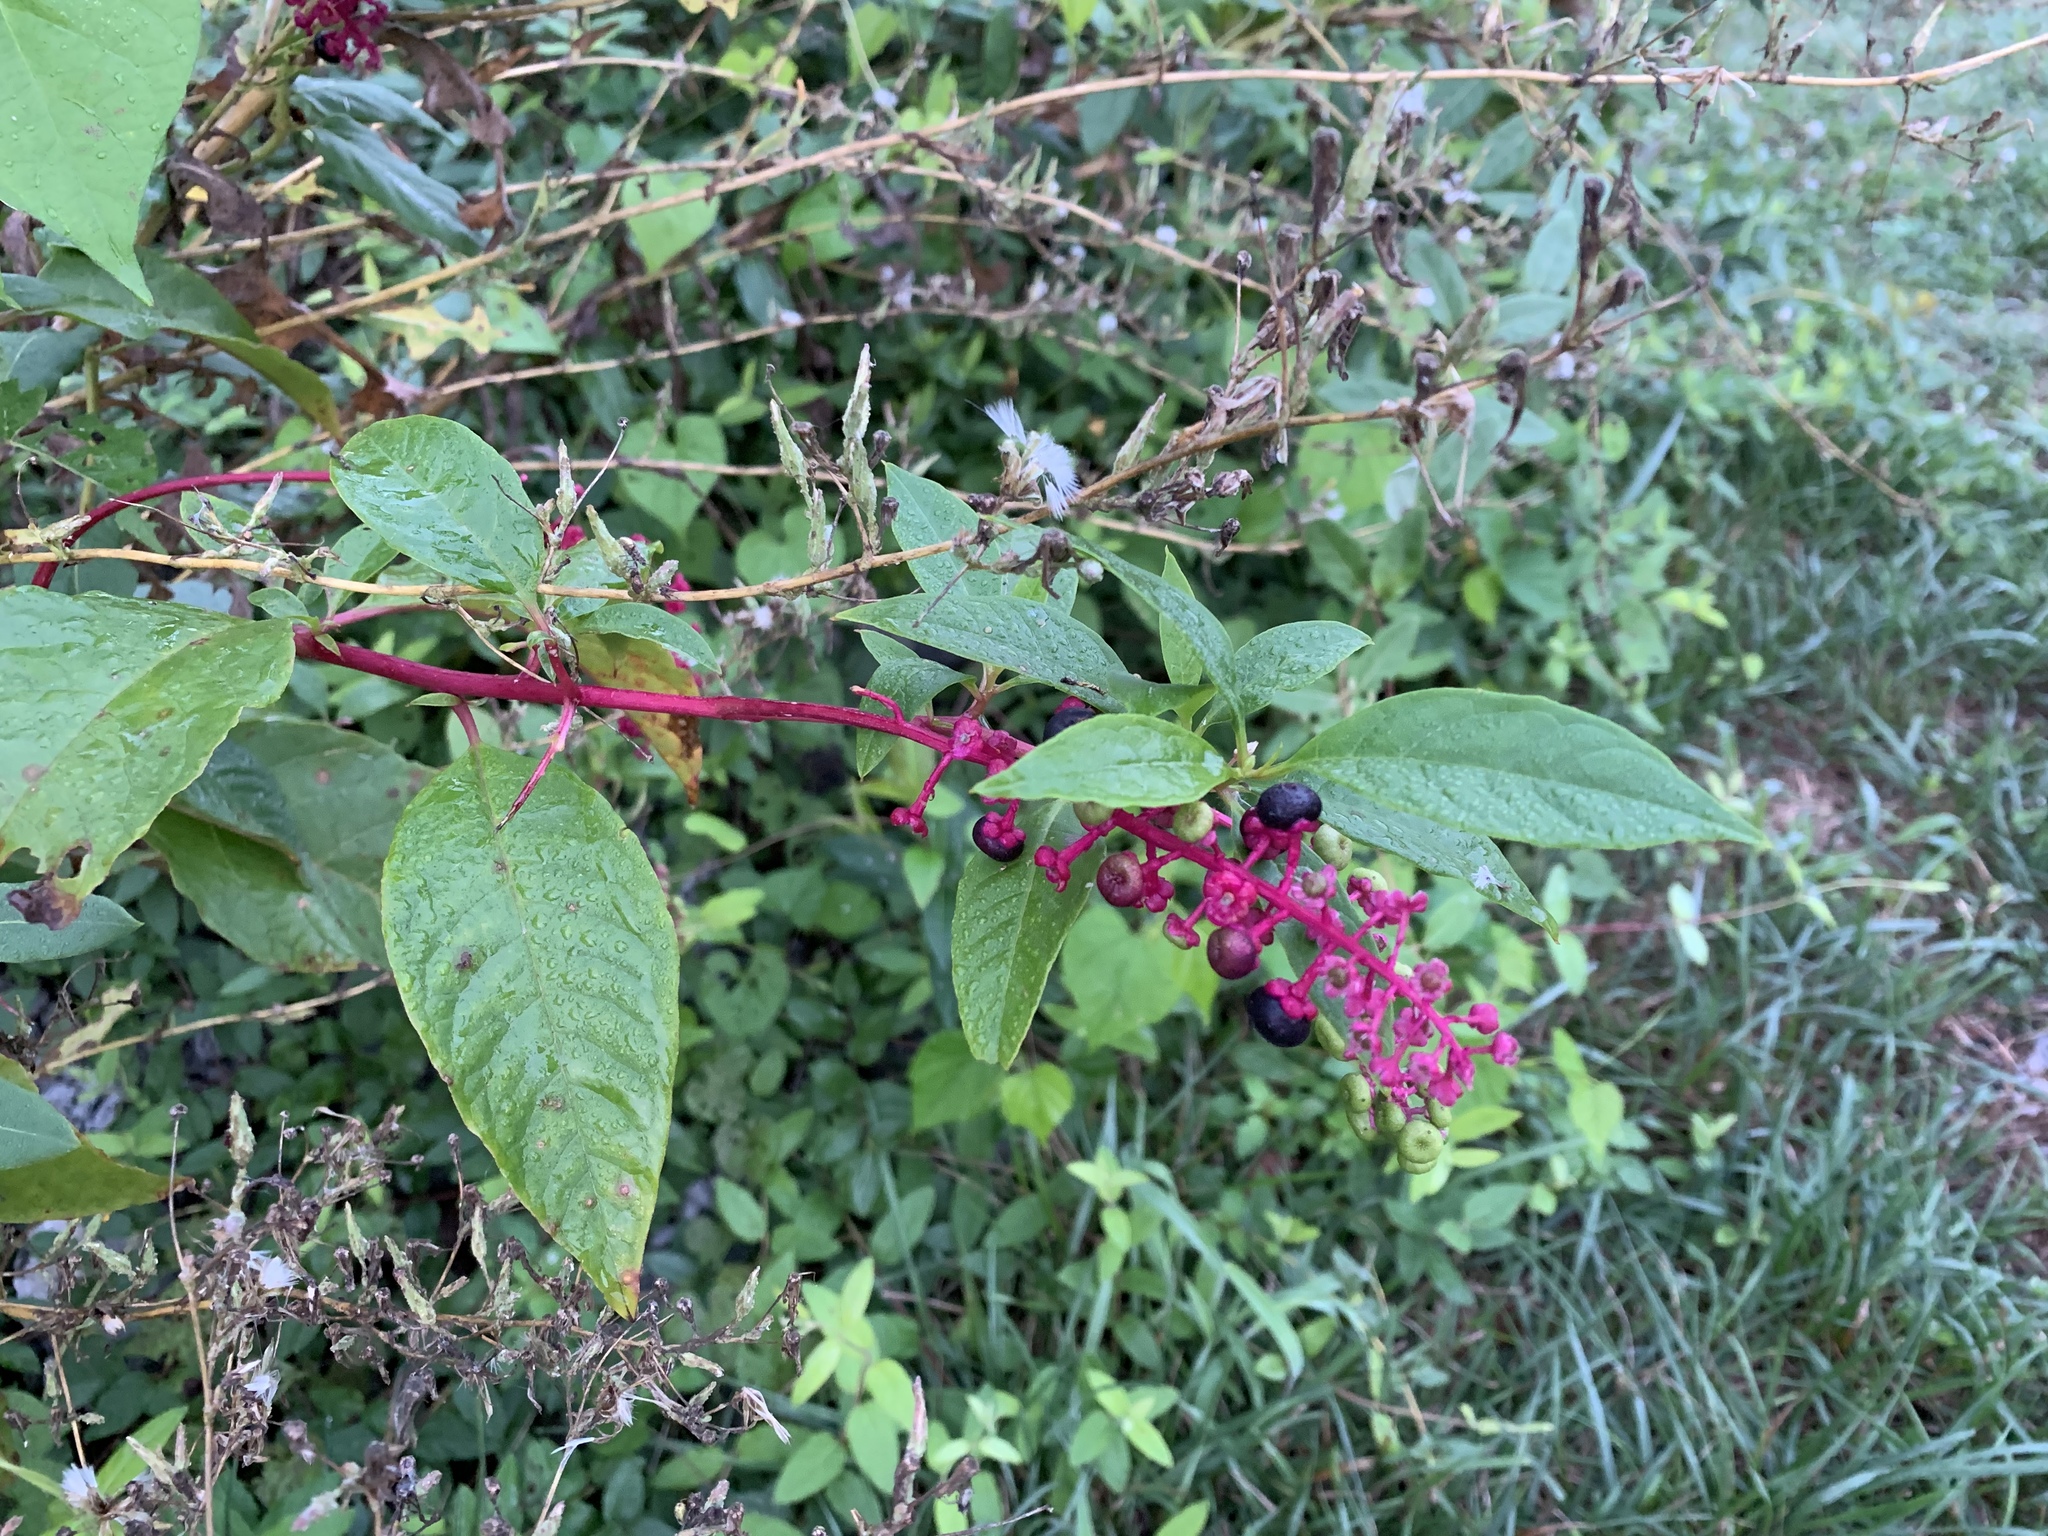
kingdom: Plantae
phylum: Tracheophyta
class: Magnoliopsida
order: Caryophyllales
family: Phytolaccaceae
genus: Phytolacca
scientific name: Phytolacca americana
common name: American pokeweed
